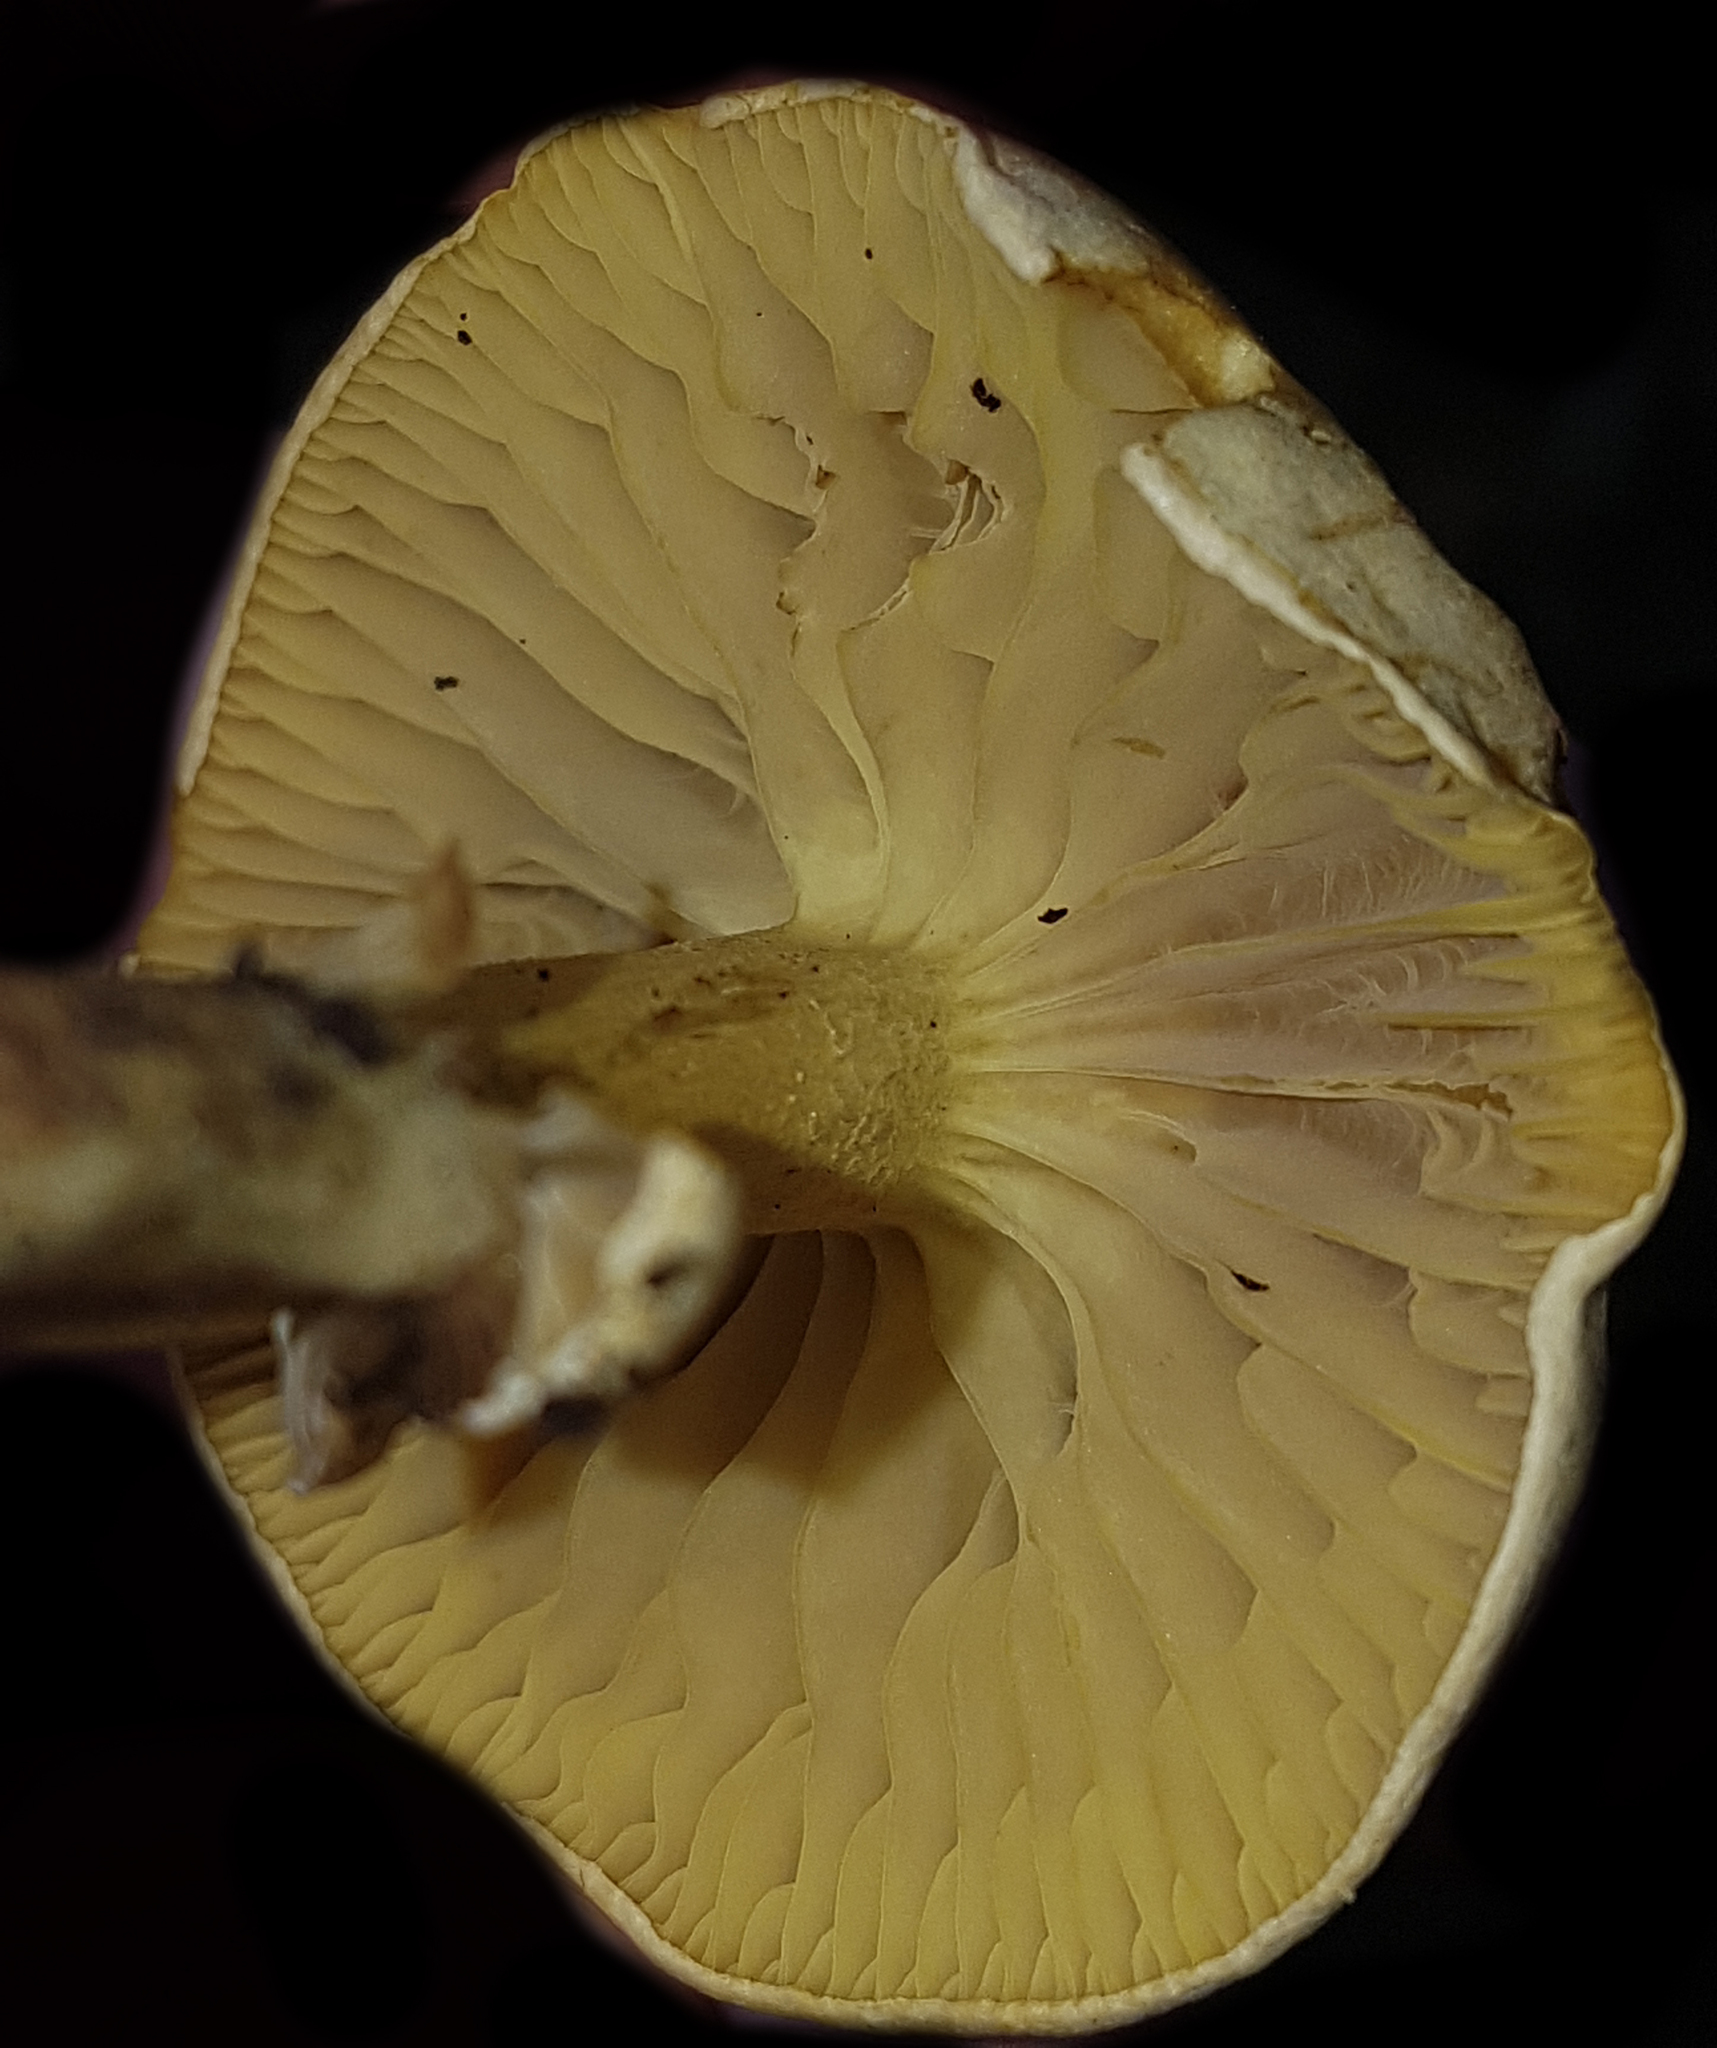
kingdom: Fungi
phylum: Basidiomycota
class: Agaricomycetes
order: Agaricales
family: Tricholomataceae
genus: Tricholoma
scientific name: Tricholoma sulphureum
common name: Stinky knight
